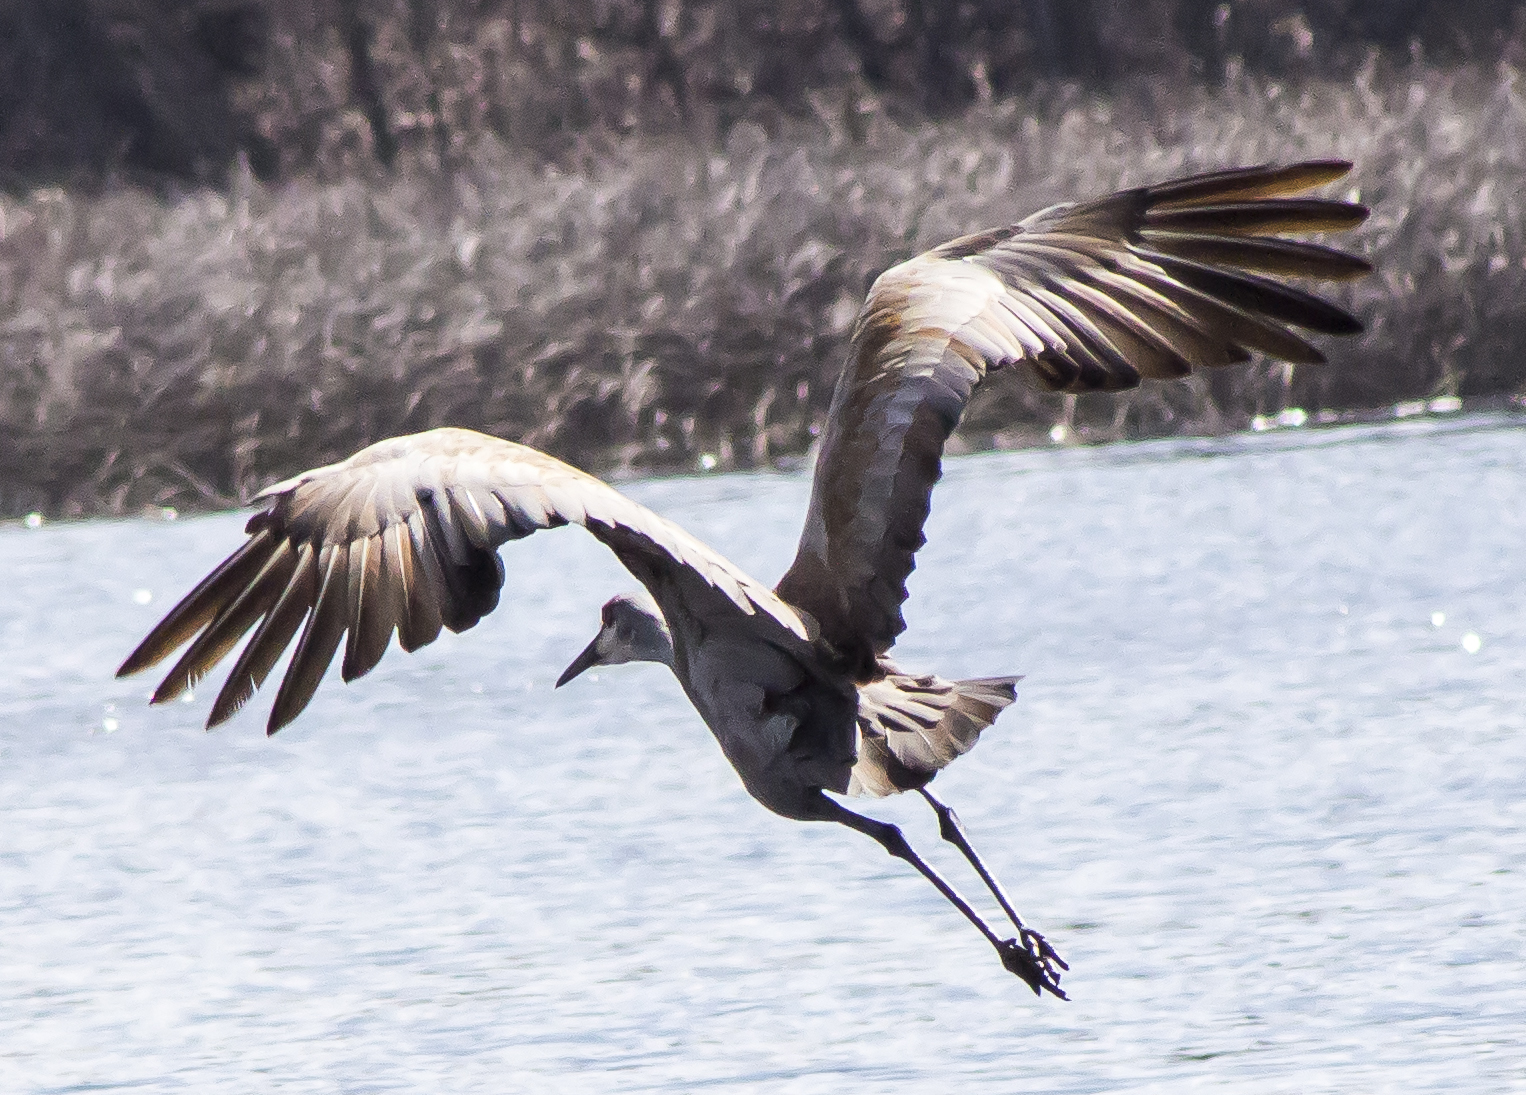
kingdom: Animalia
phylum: Chordata
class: Aves
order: Gruiformes
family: Gruidae
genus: Grus
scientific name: Grus canadensis
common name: Sandhill crane
